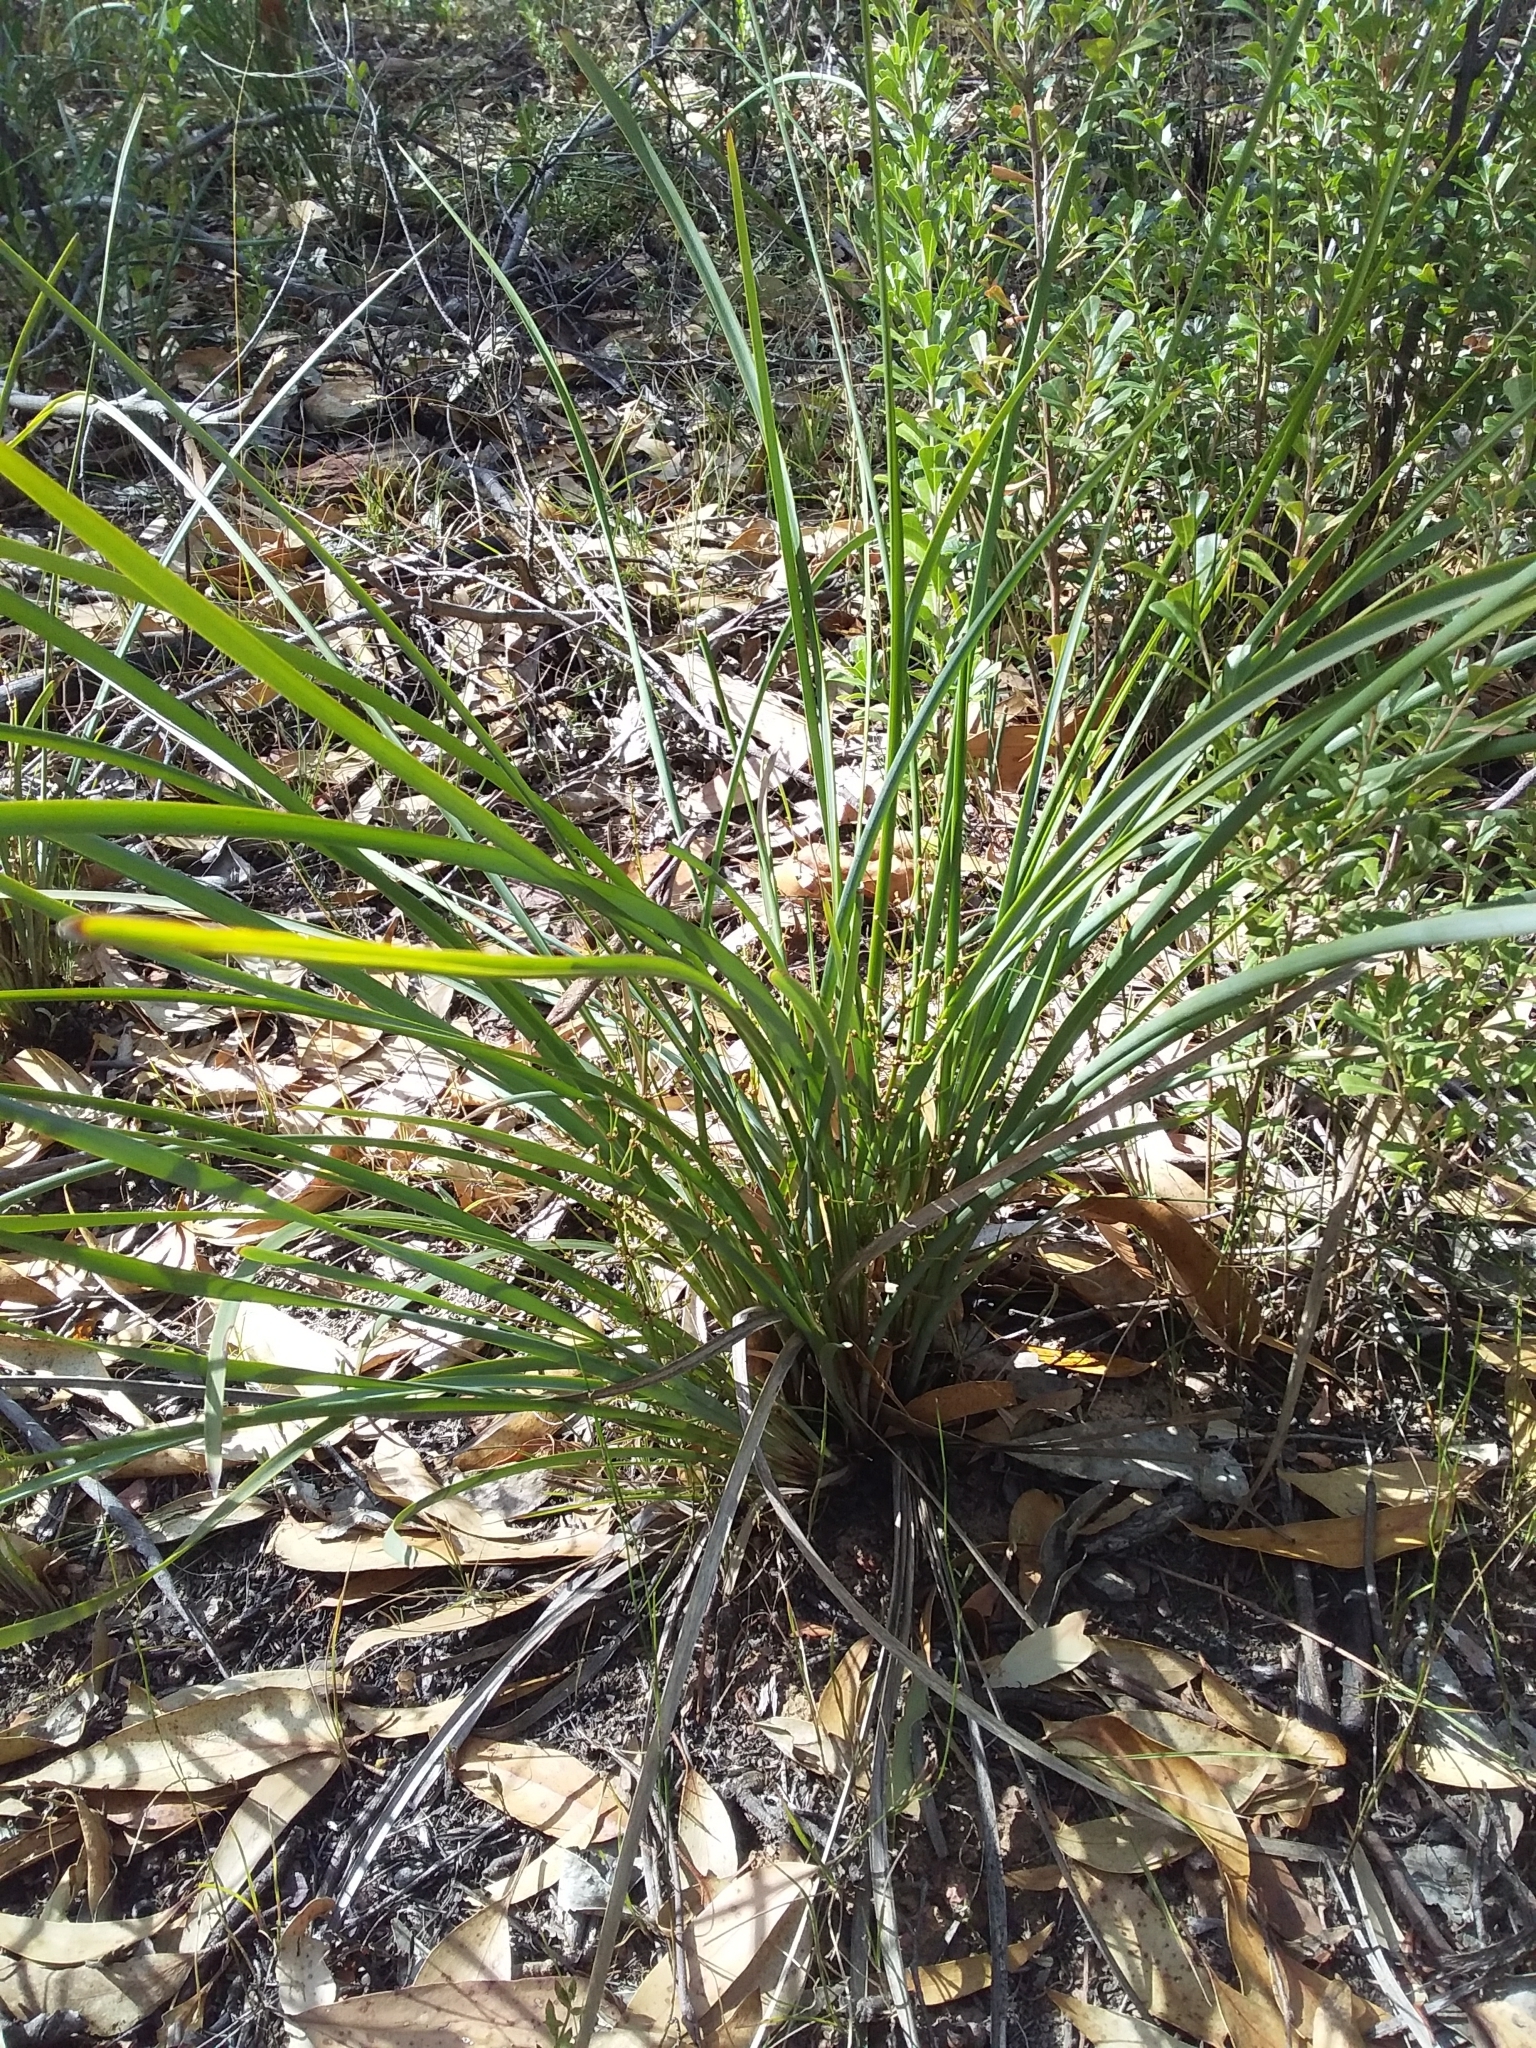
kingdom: Plantae
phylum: Tracheophyta
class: Liliopsida
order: Asparagales
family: Asparagaceae
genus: Lomandra
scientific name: Lomandra multiflora
